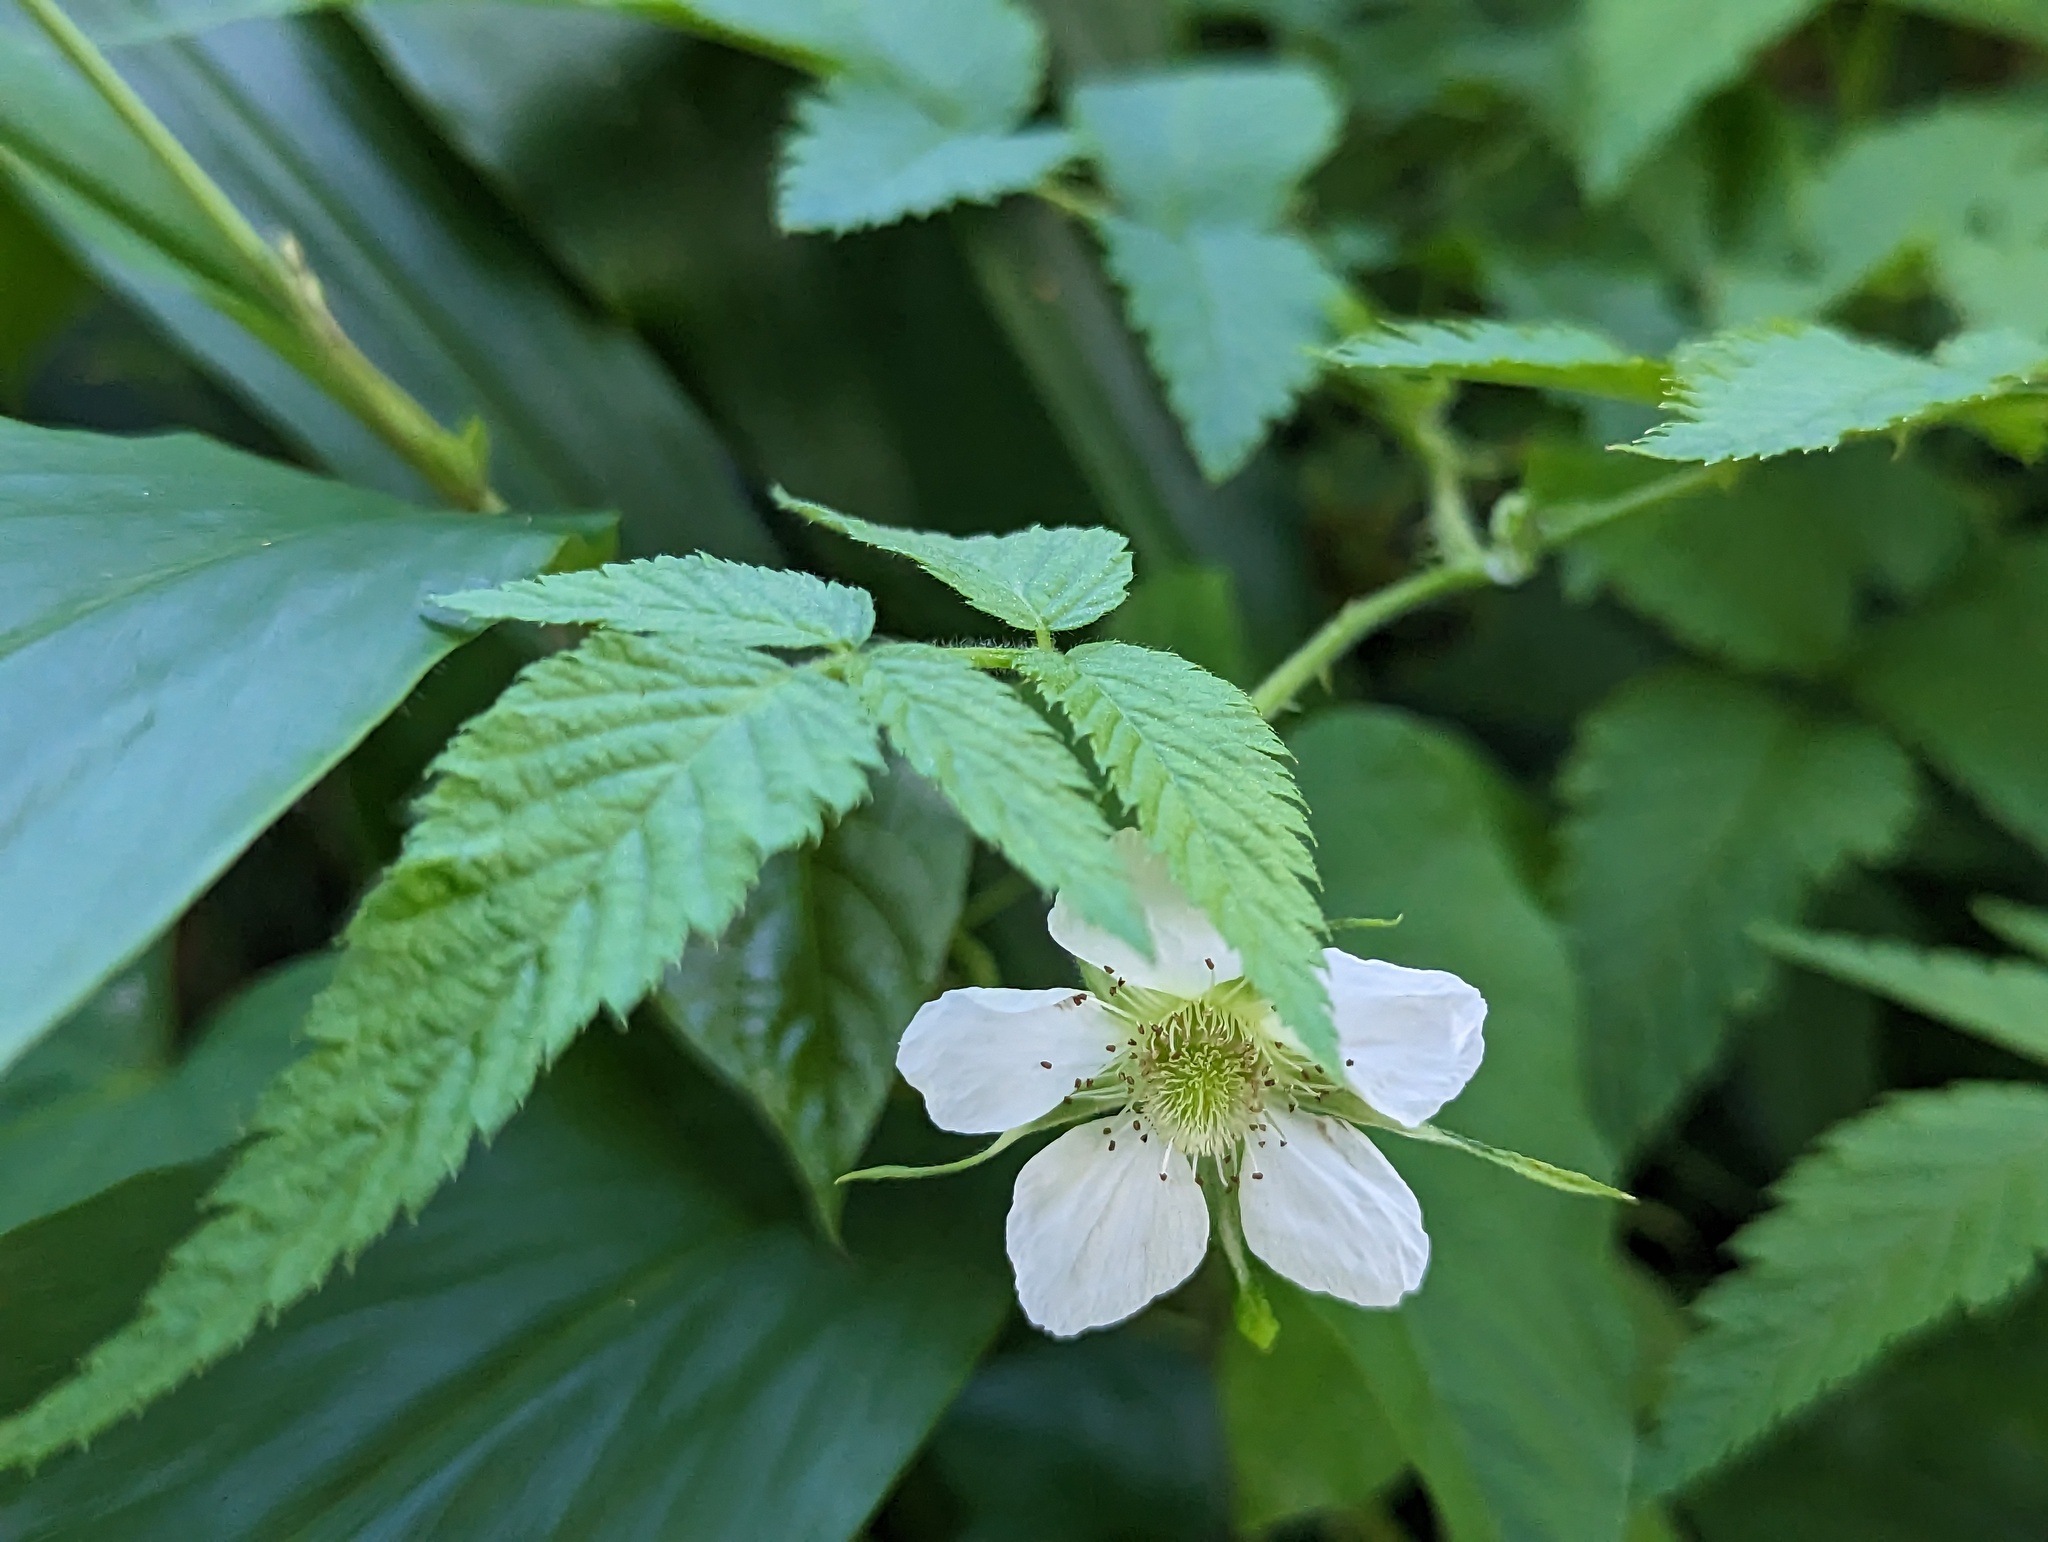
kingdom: Plantae
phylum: Tracheophyta
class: Magnoliopsida
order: Rosales
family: Rosaceae
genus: Rubus
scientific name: Rubus rosifolius
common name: Roseleaf raspberry
